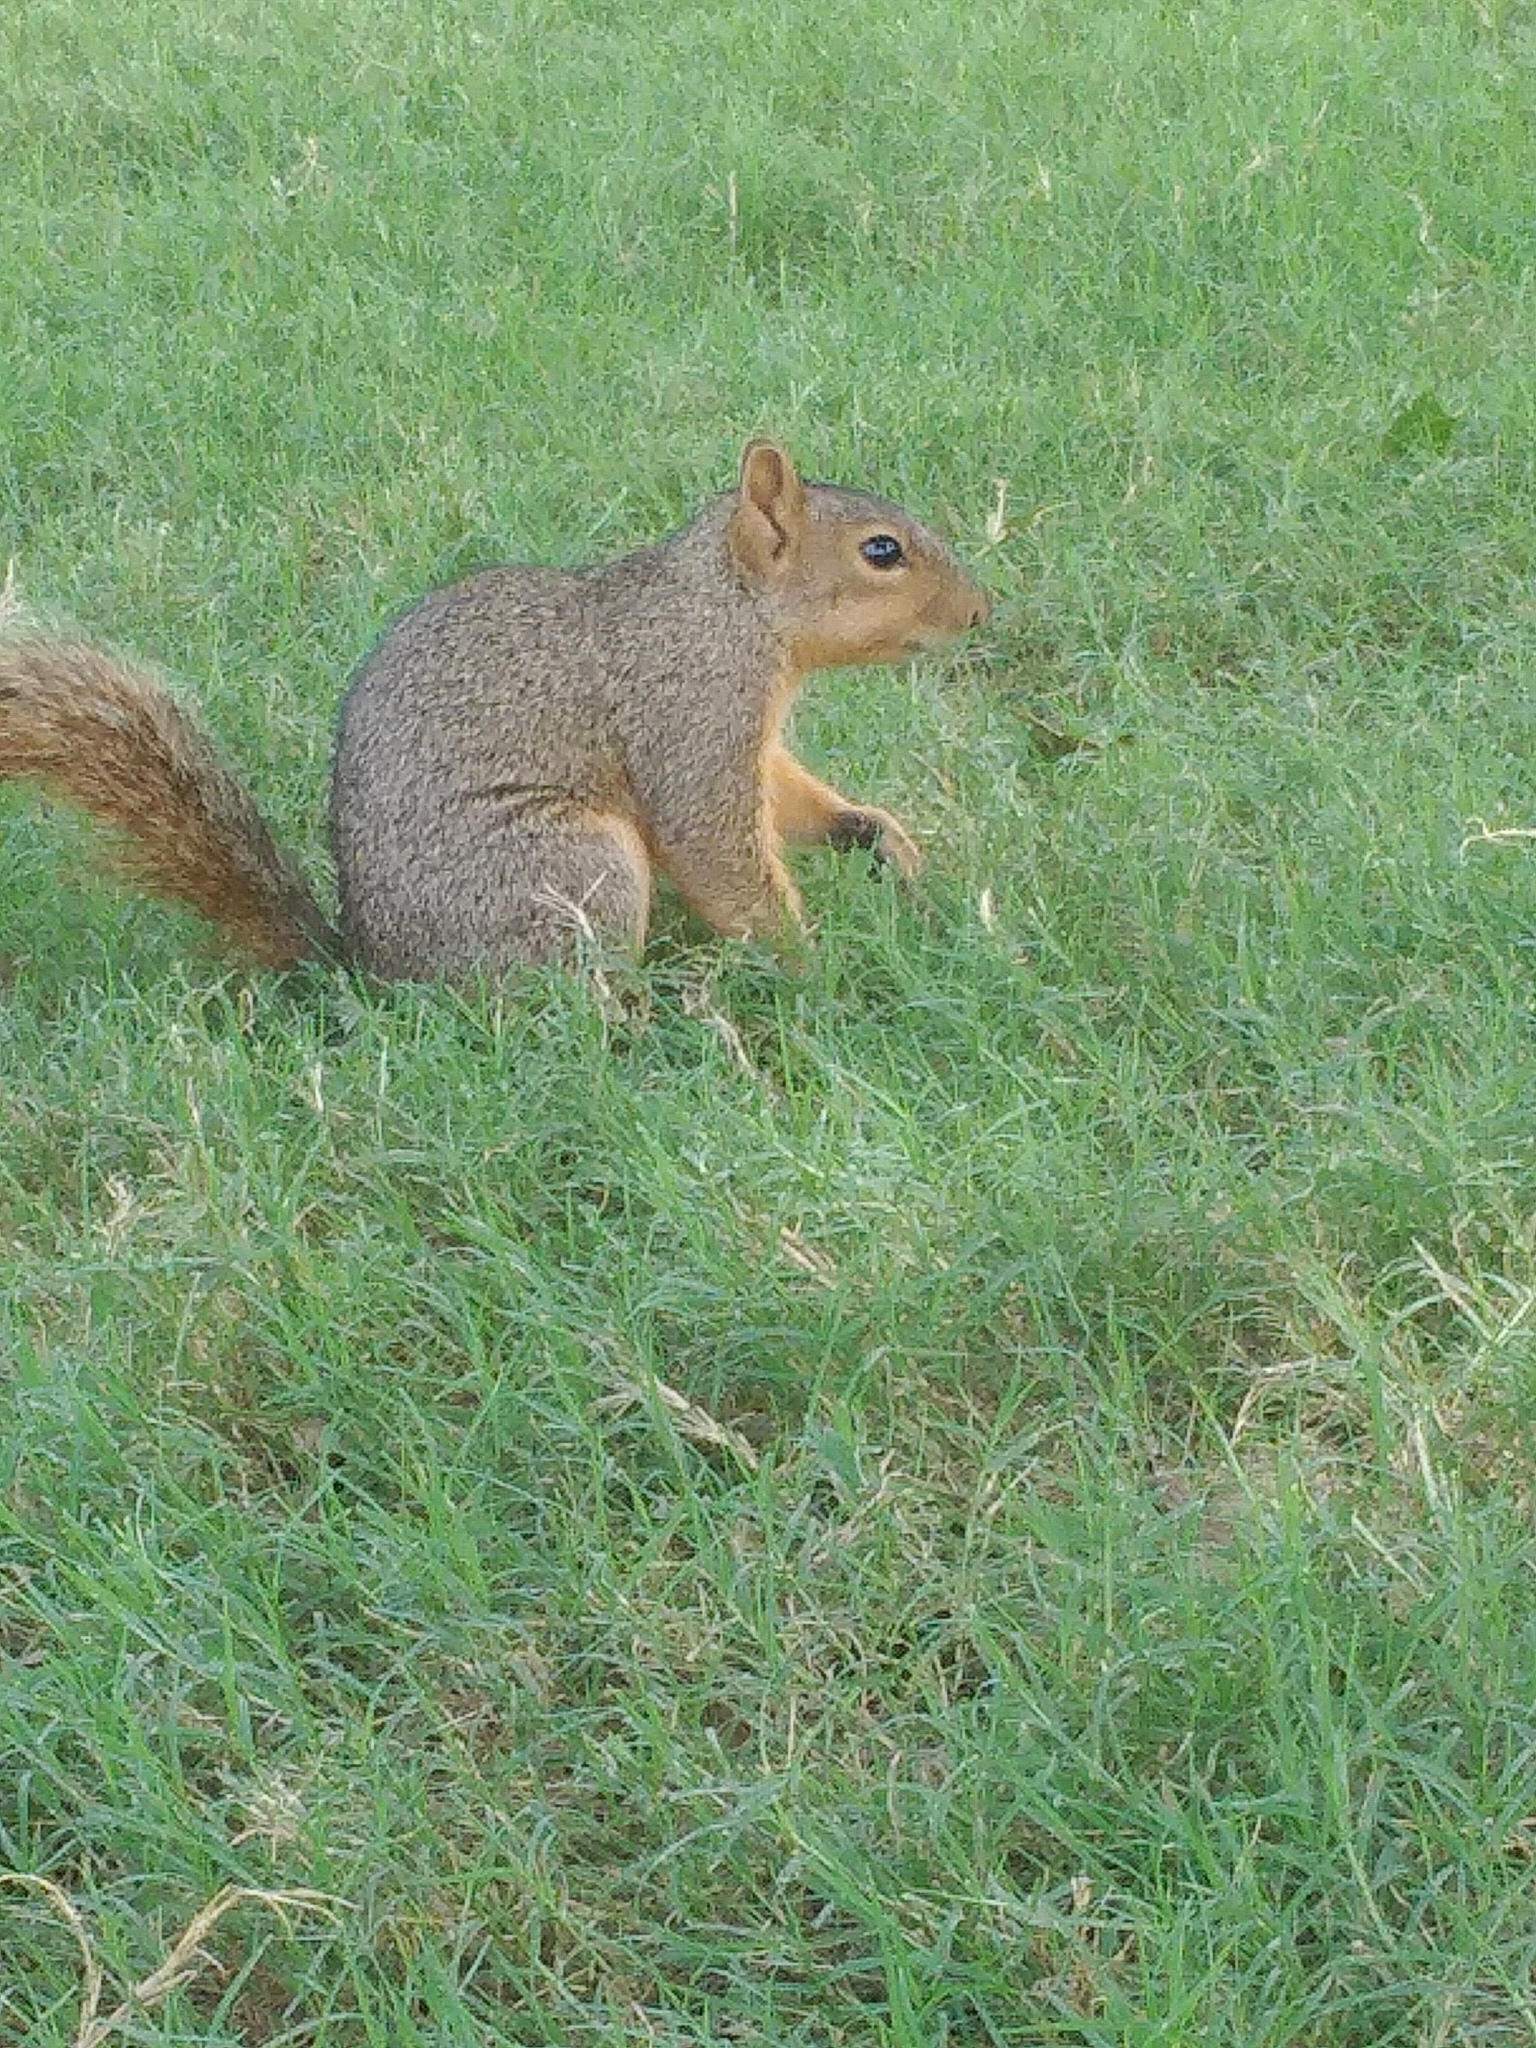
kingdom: Animalia
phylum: Chordata
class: Mammalia
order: Rodentia
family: Sciuridae
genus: Sciurus
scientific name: Sciurus niger
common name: Fox squirrel
